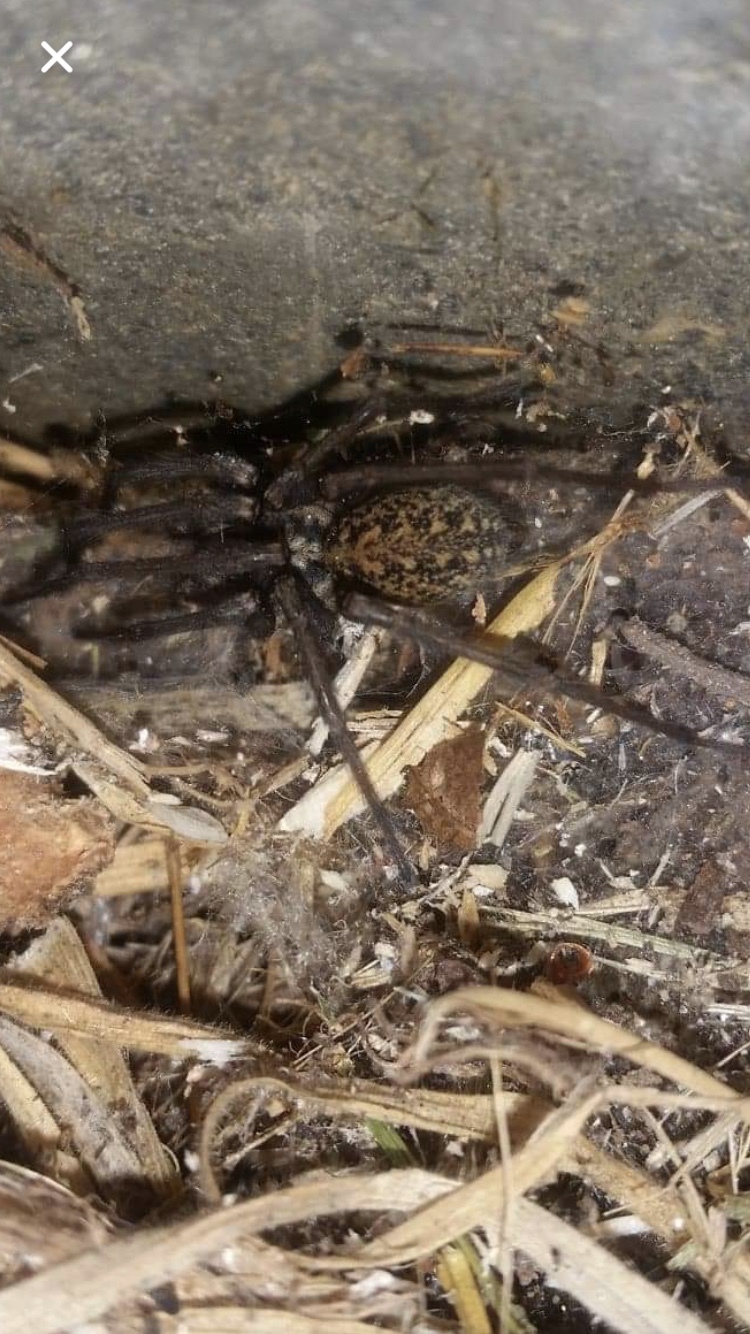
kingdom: Animalia
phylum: Arthropoda
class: Arachnida
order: Araneae
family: Agelenidae
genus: Eratigena
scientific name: Eratigena duellica
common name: Giant house spider
